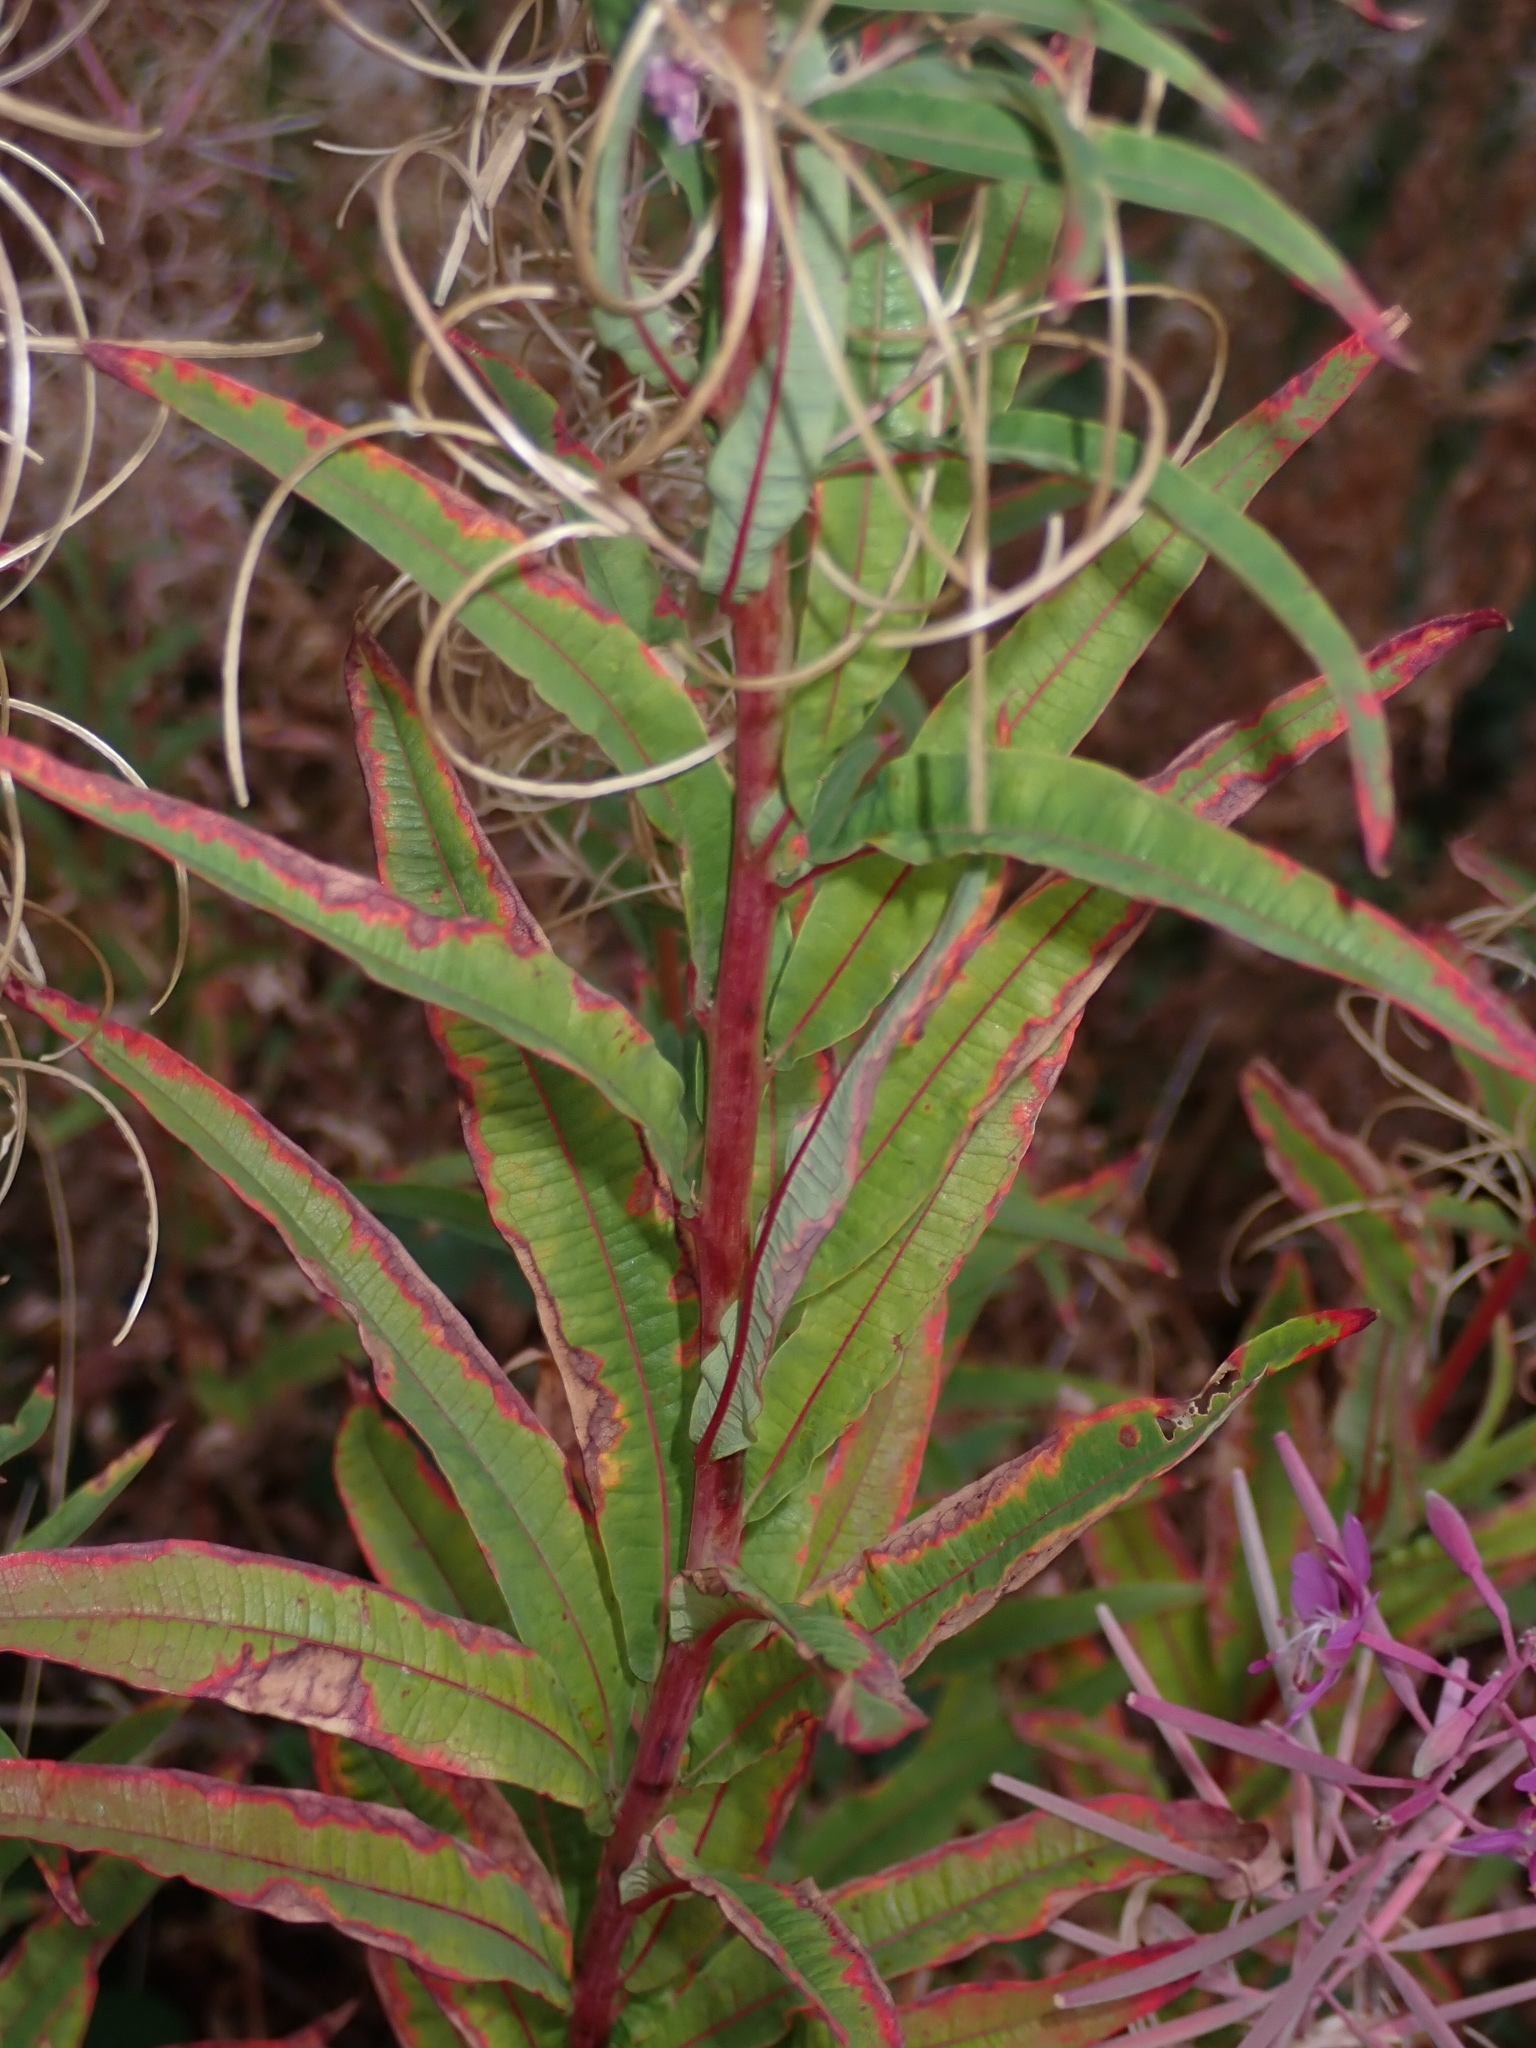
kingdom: Plantae
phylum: Tracheophyta
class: Magnoliopsida
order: Myrtales
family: Onagraceae
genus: Chamaenerion
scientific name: Chamaenerion angustifolium
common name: Fireweed
